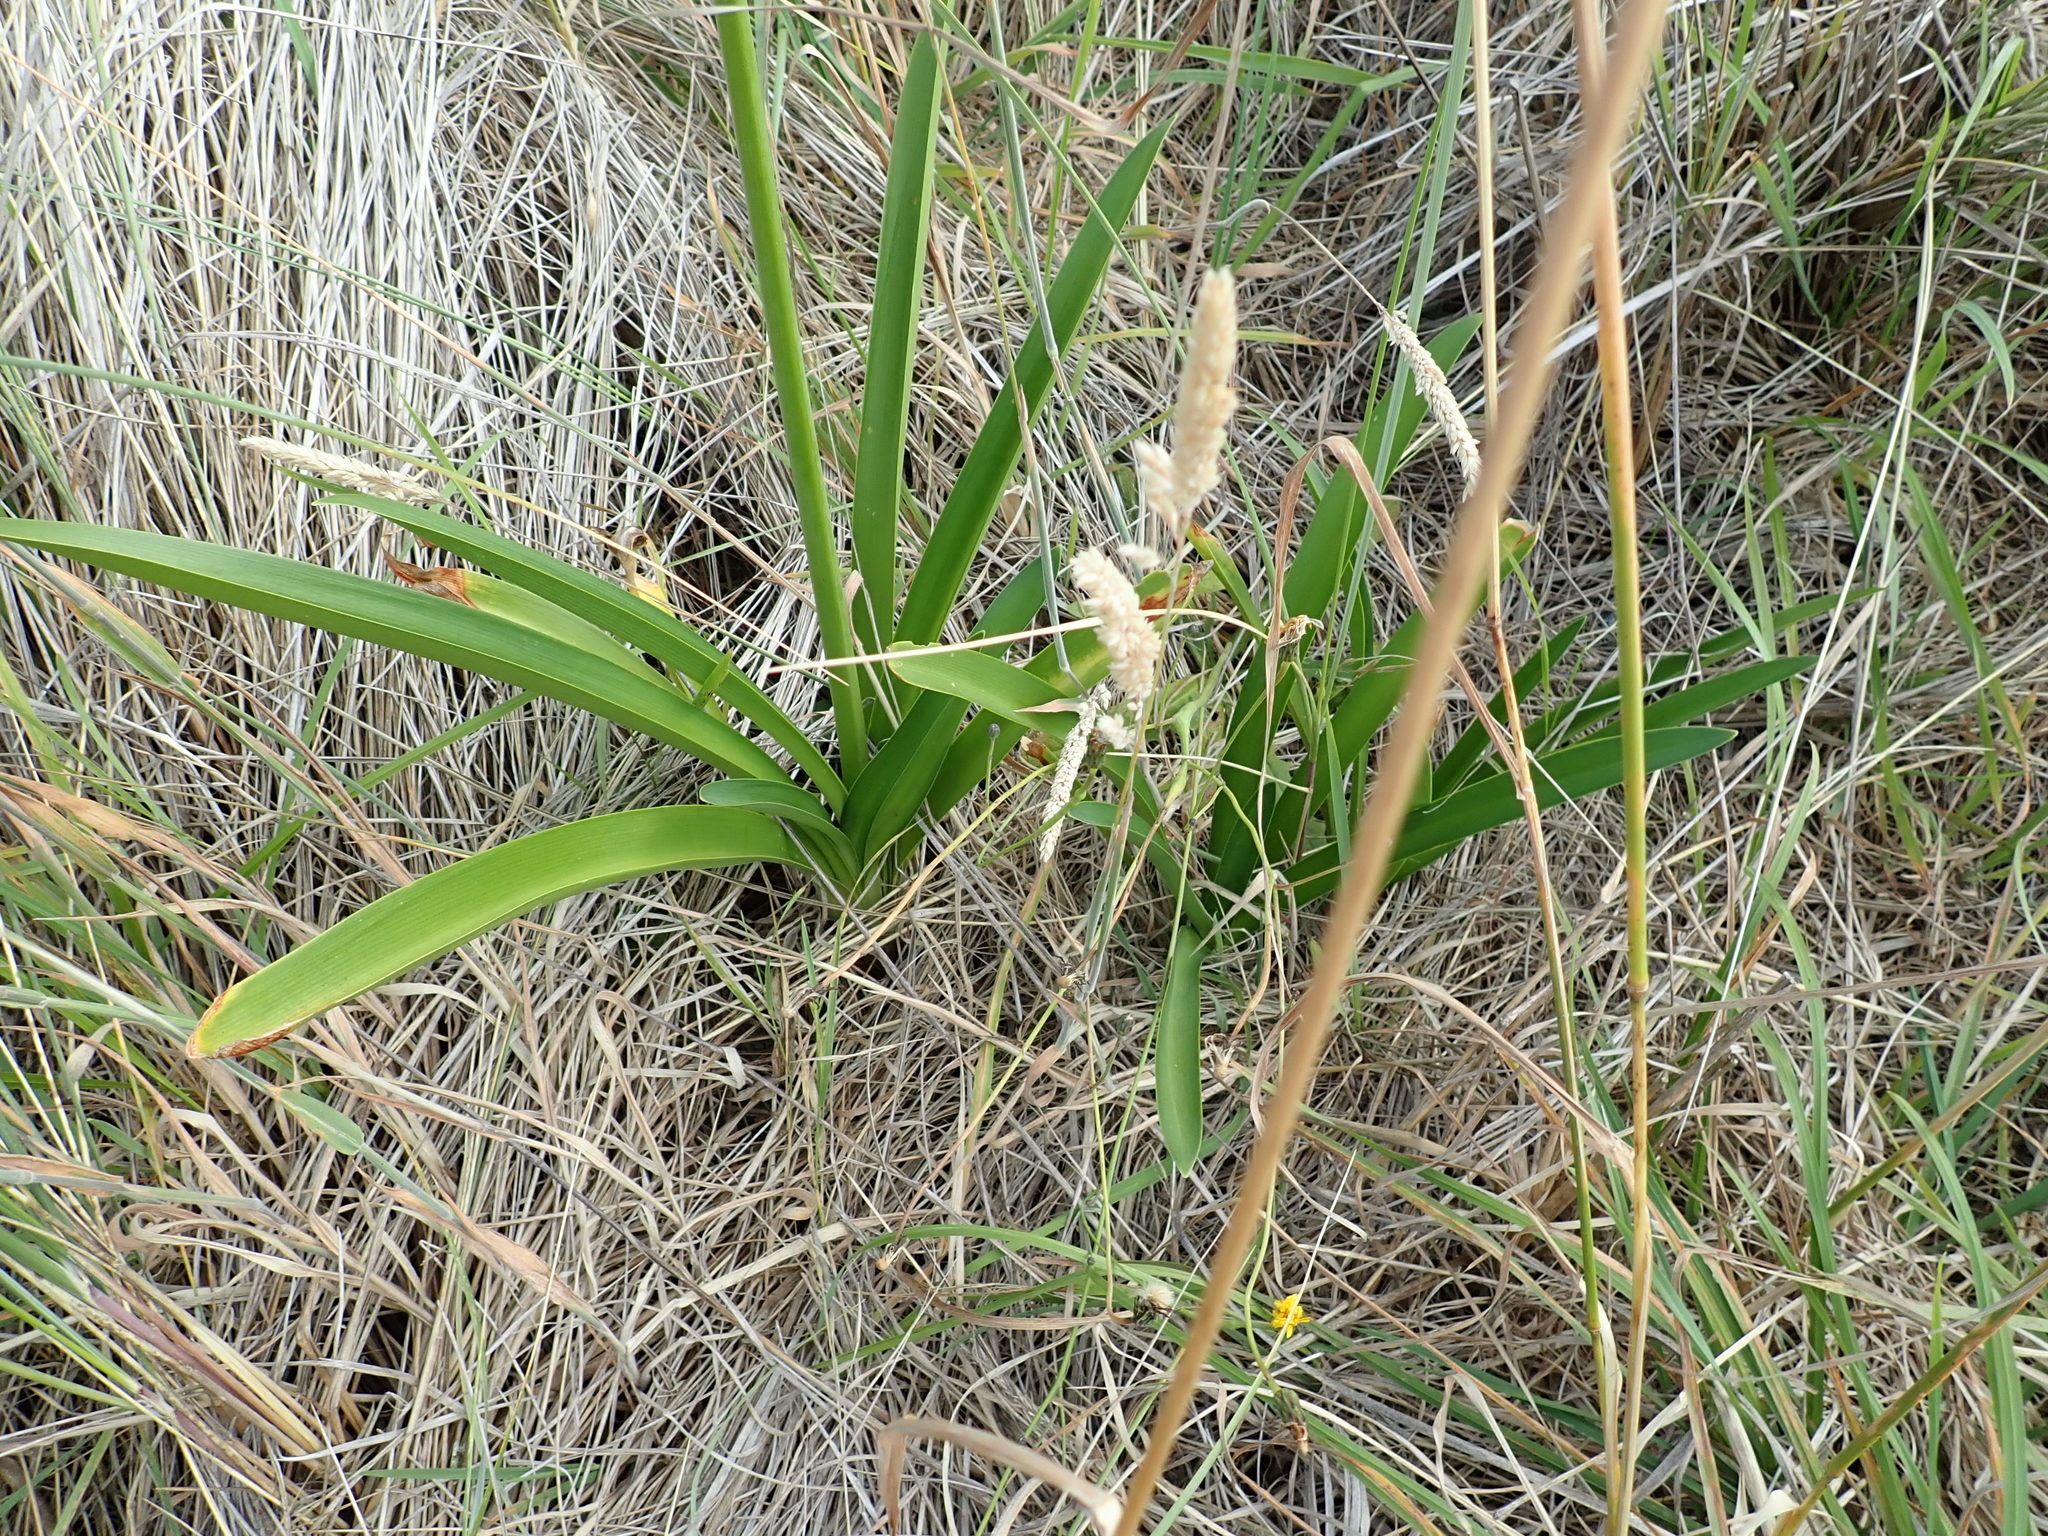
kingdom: Plantae
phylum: Tracheophyta
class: Liliopsida
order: Asparagales
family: Amaryllidaceae
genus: Agapanthus
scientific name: Agapanthus praecox
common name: African-lily
